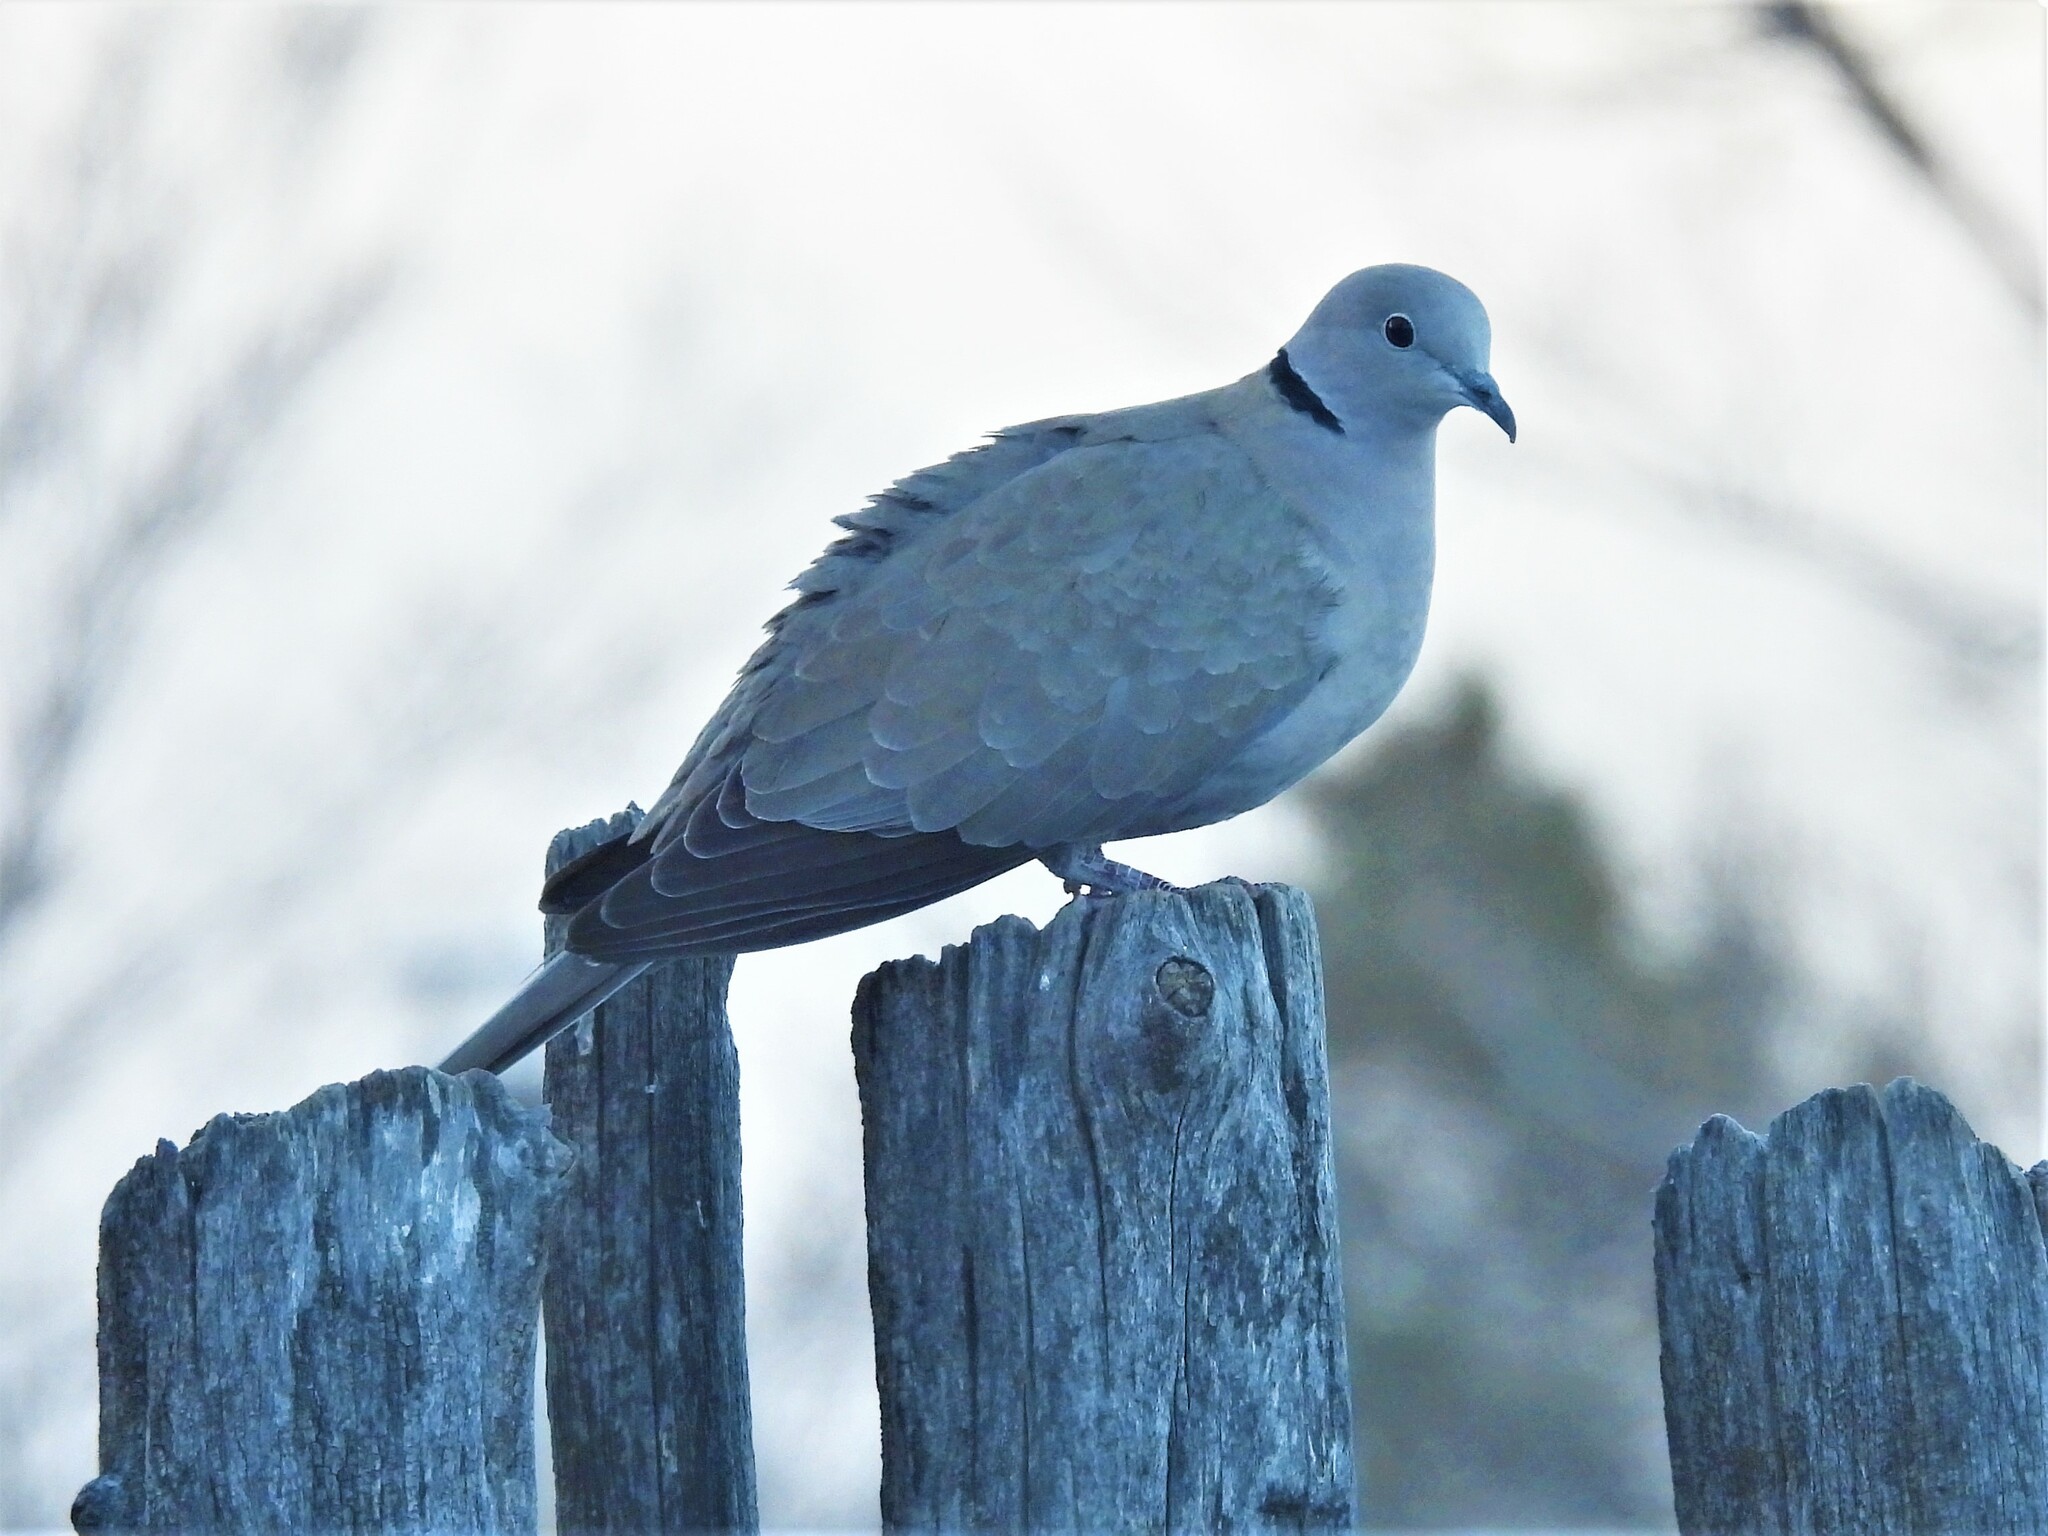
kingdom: Animalia
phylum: Chordata
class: Aves
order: Columbiformes
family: Columbidae
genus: Streptopelia
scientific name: Streptopelia decaocto
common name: Eurasian collared dove
